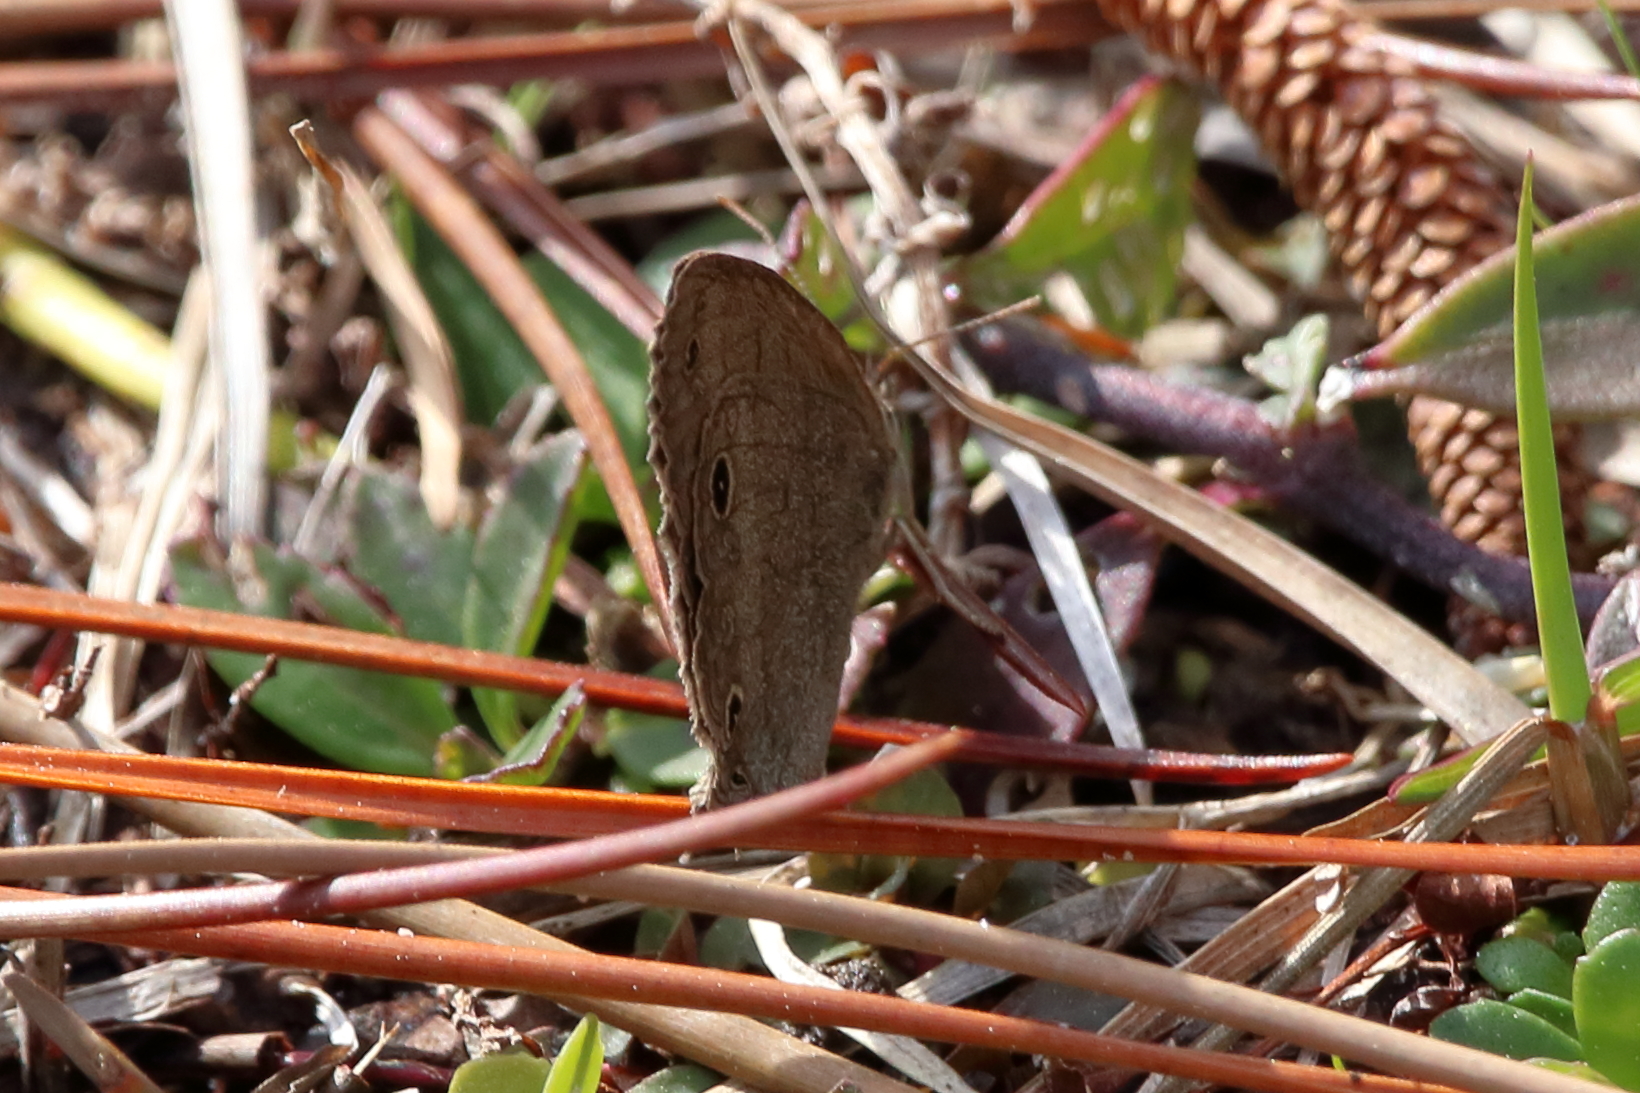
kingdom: Animalia
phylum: Arthropoda
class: Insecta
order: Lepidoptera
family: Nymphalidae
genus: Hermeuptychia
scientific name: Hermeuptychia hermes
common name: Hermes satyr
